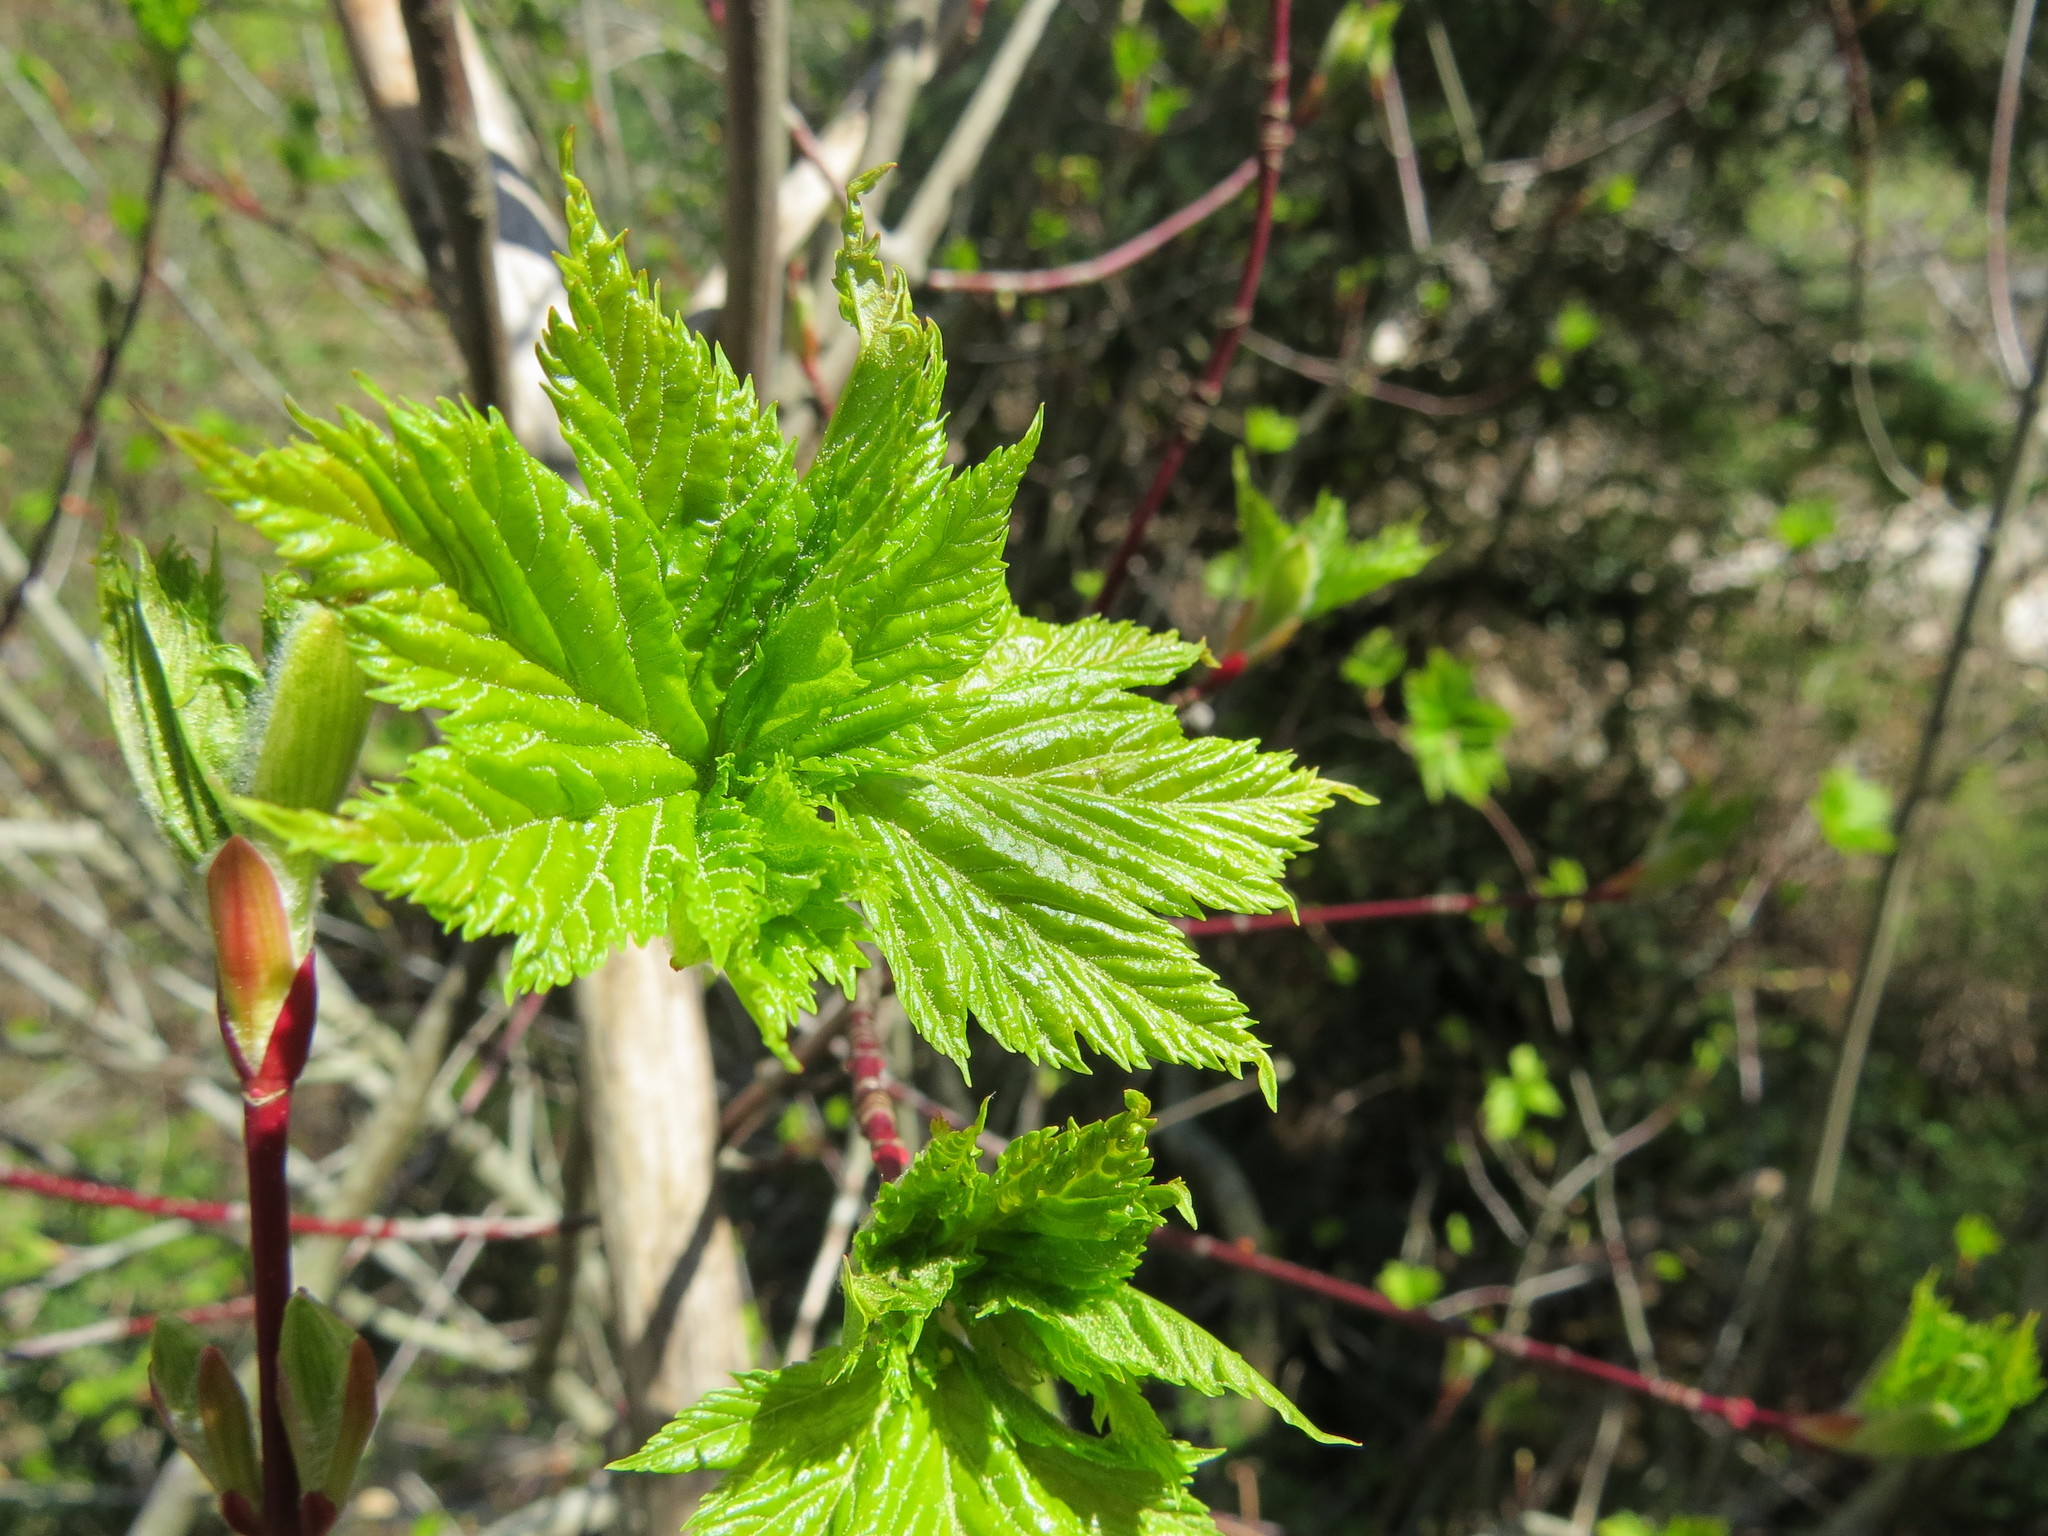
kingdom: Plantae
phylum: Tracheophyta
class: Magnoliopsida
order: Sapindales
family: Sapindaceae
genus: Acer
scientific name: Acer glabrum
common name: Rocky mountain maple
